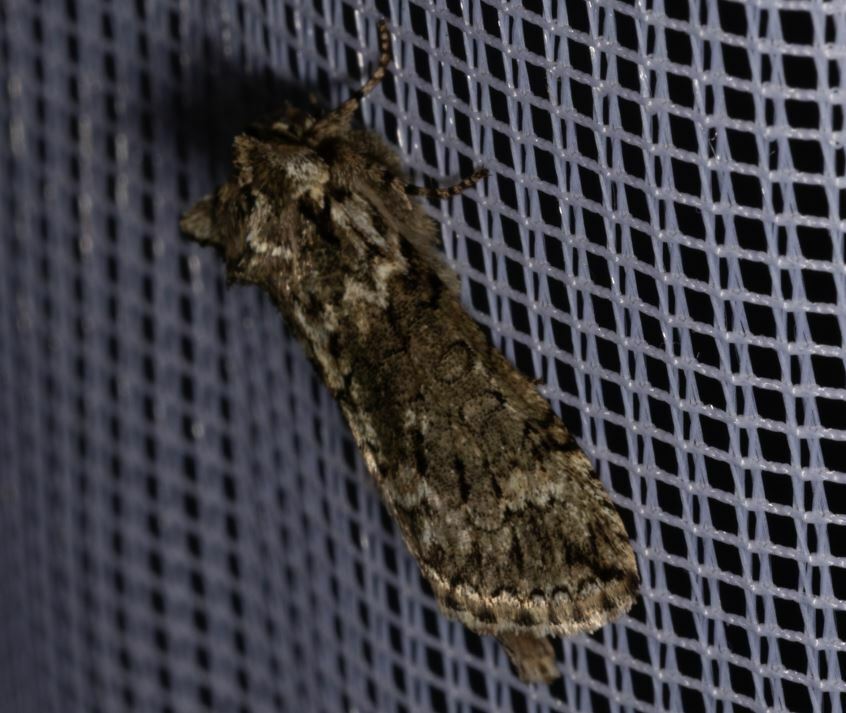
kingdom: Animalia
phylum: Arthropoda
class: Insecta
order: Lepidoptera
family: Drepanidae
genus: Polyploca
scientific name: Polyploca ridens
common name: Frosted green
